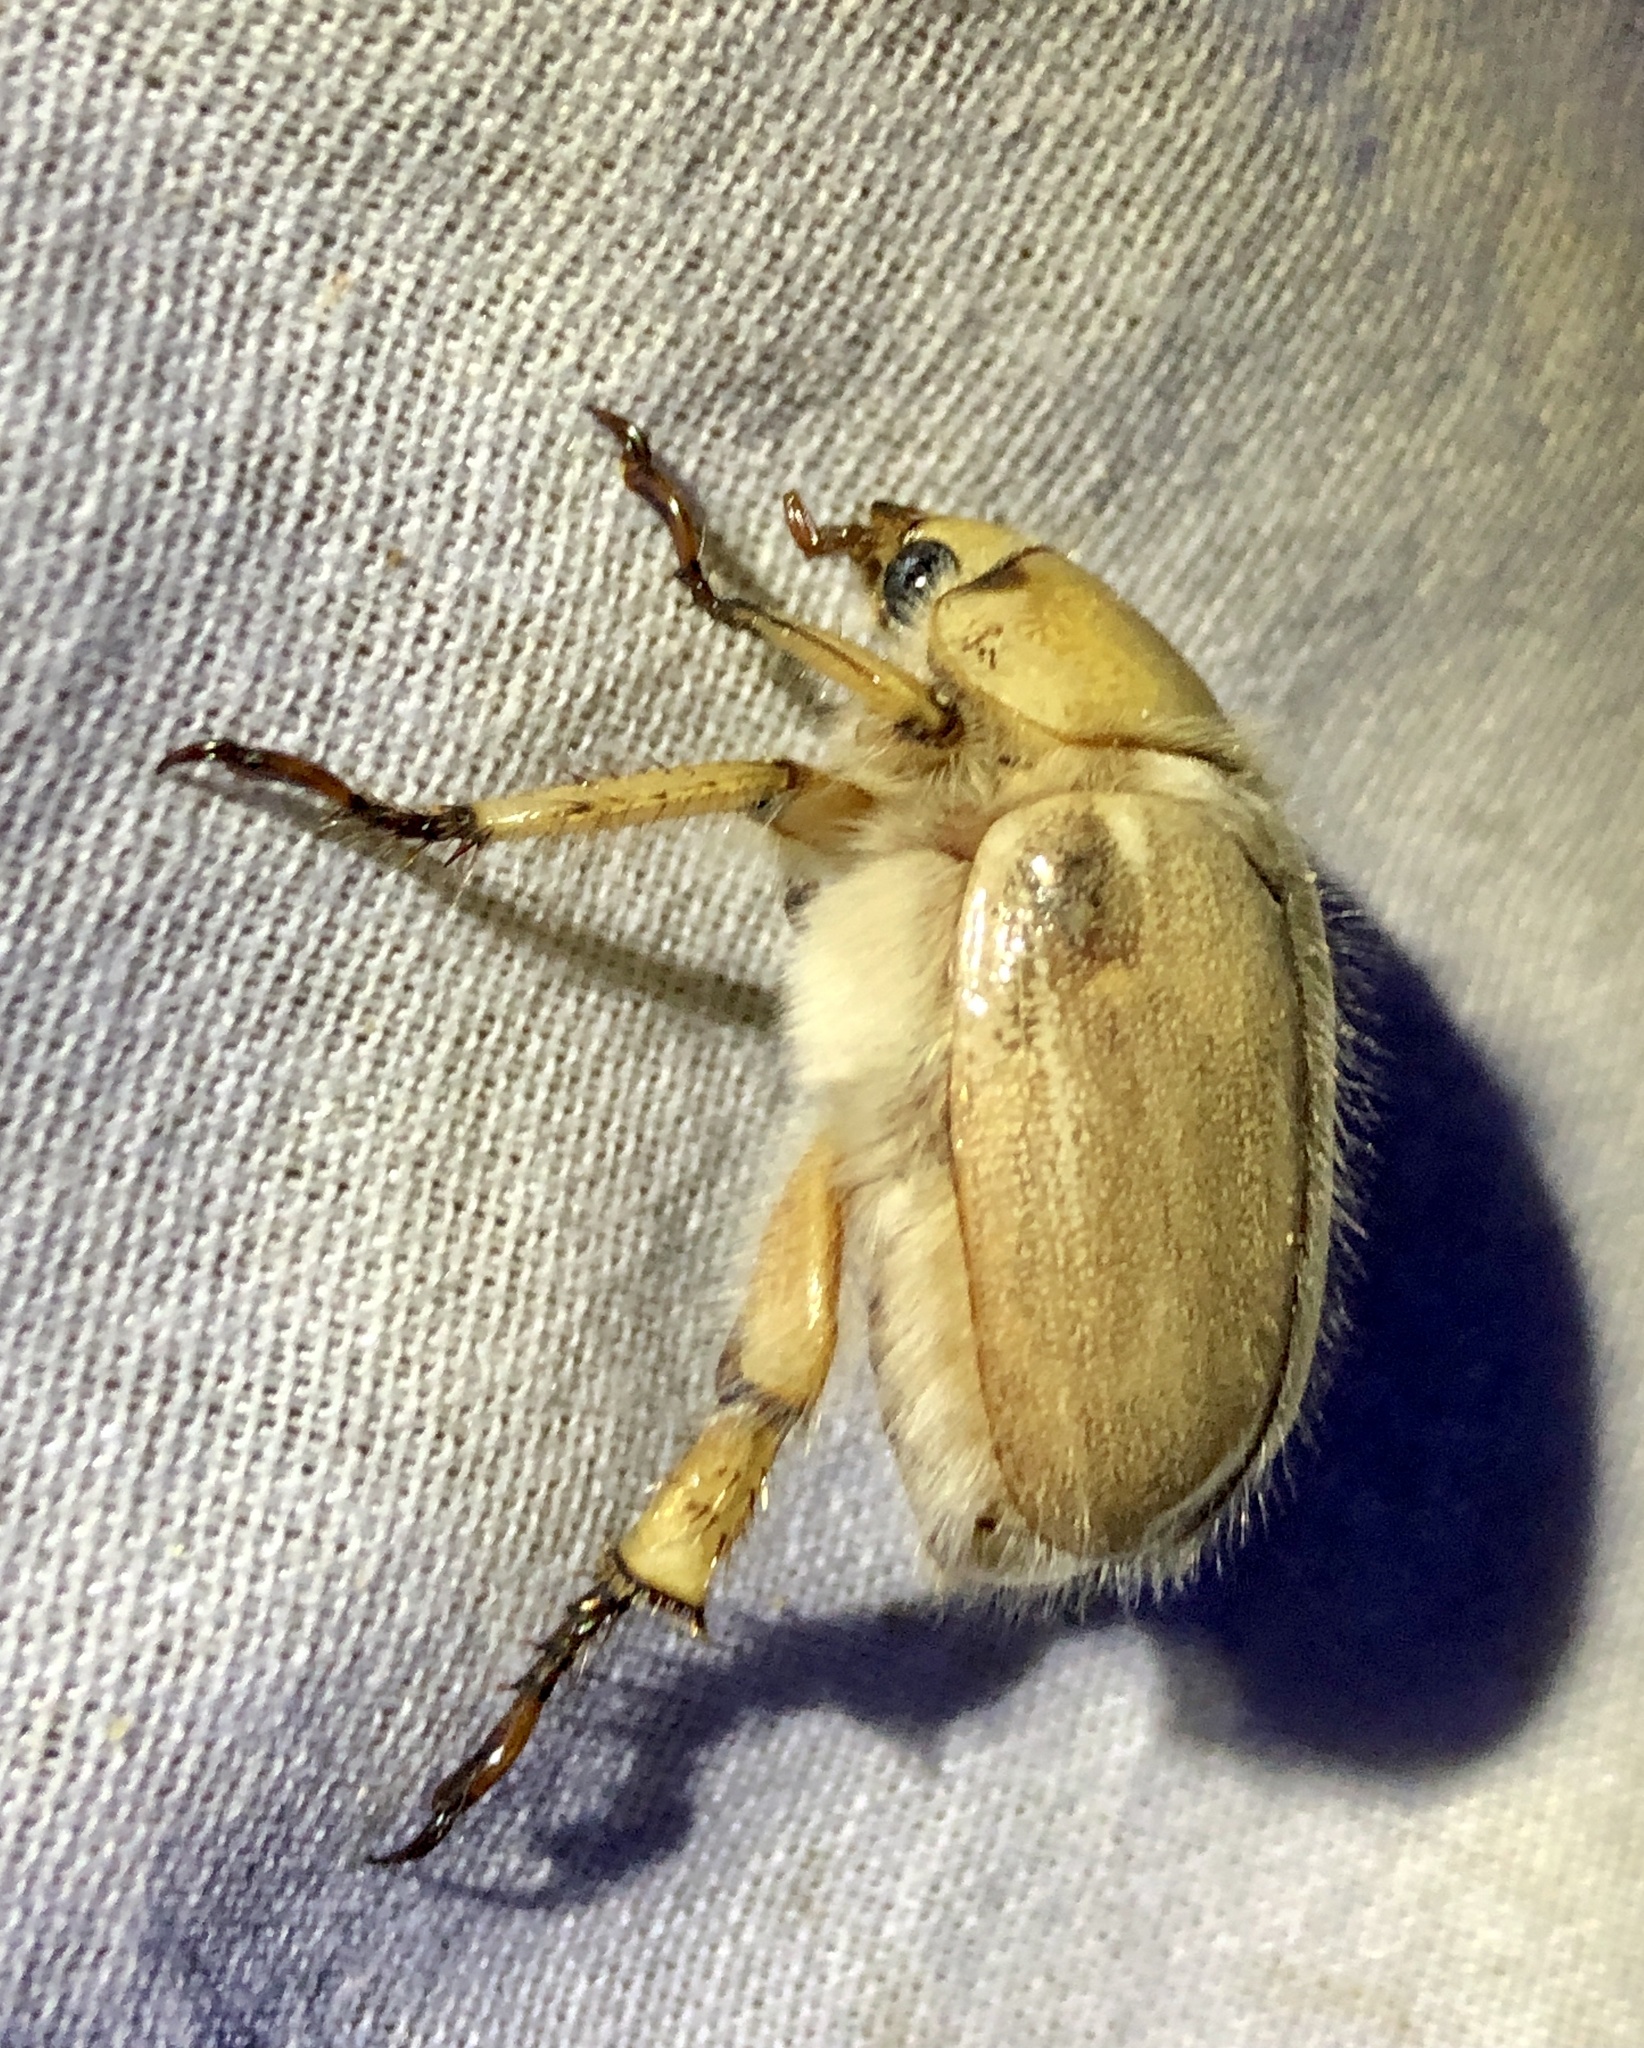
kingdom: Animalia
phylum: Arthropoda
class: Insecta
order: Coleoptera
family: Scarabaeidae
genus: Pseudocotalpa
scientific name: Pseudocotalpa sonorica
